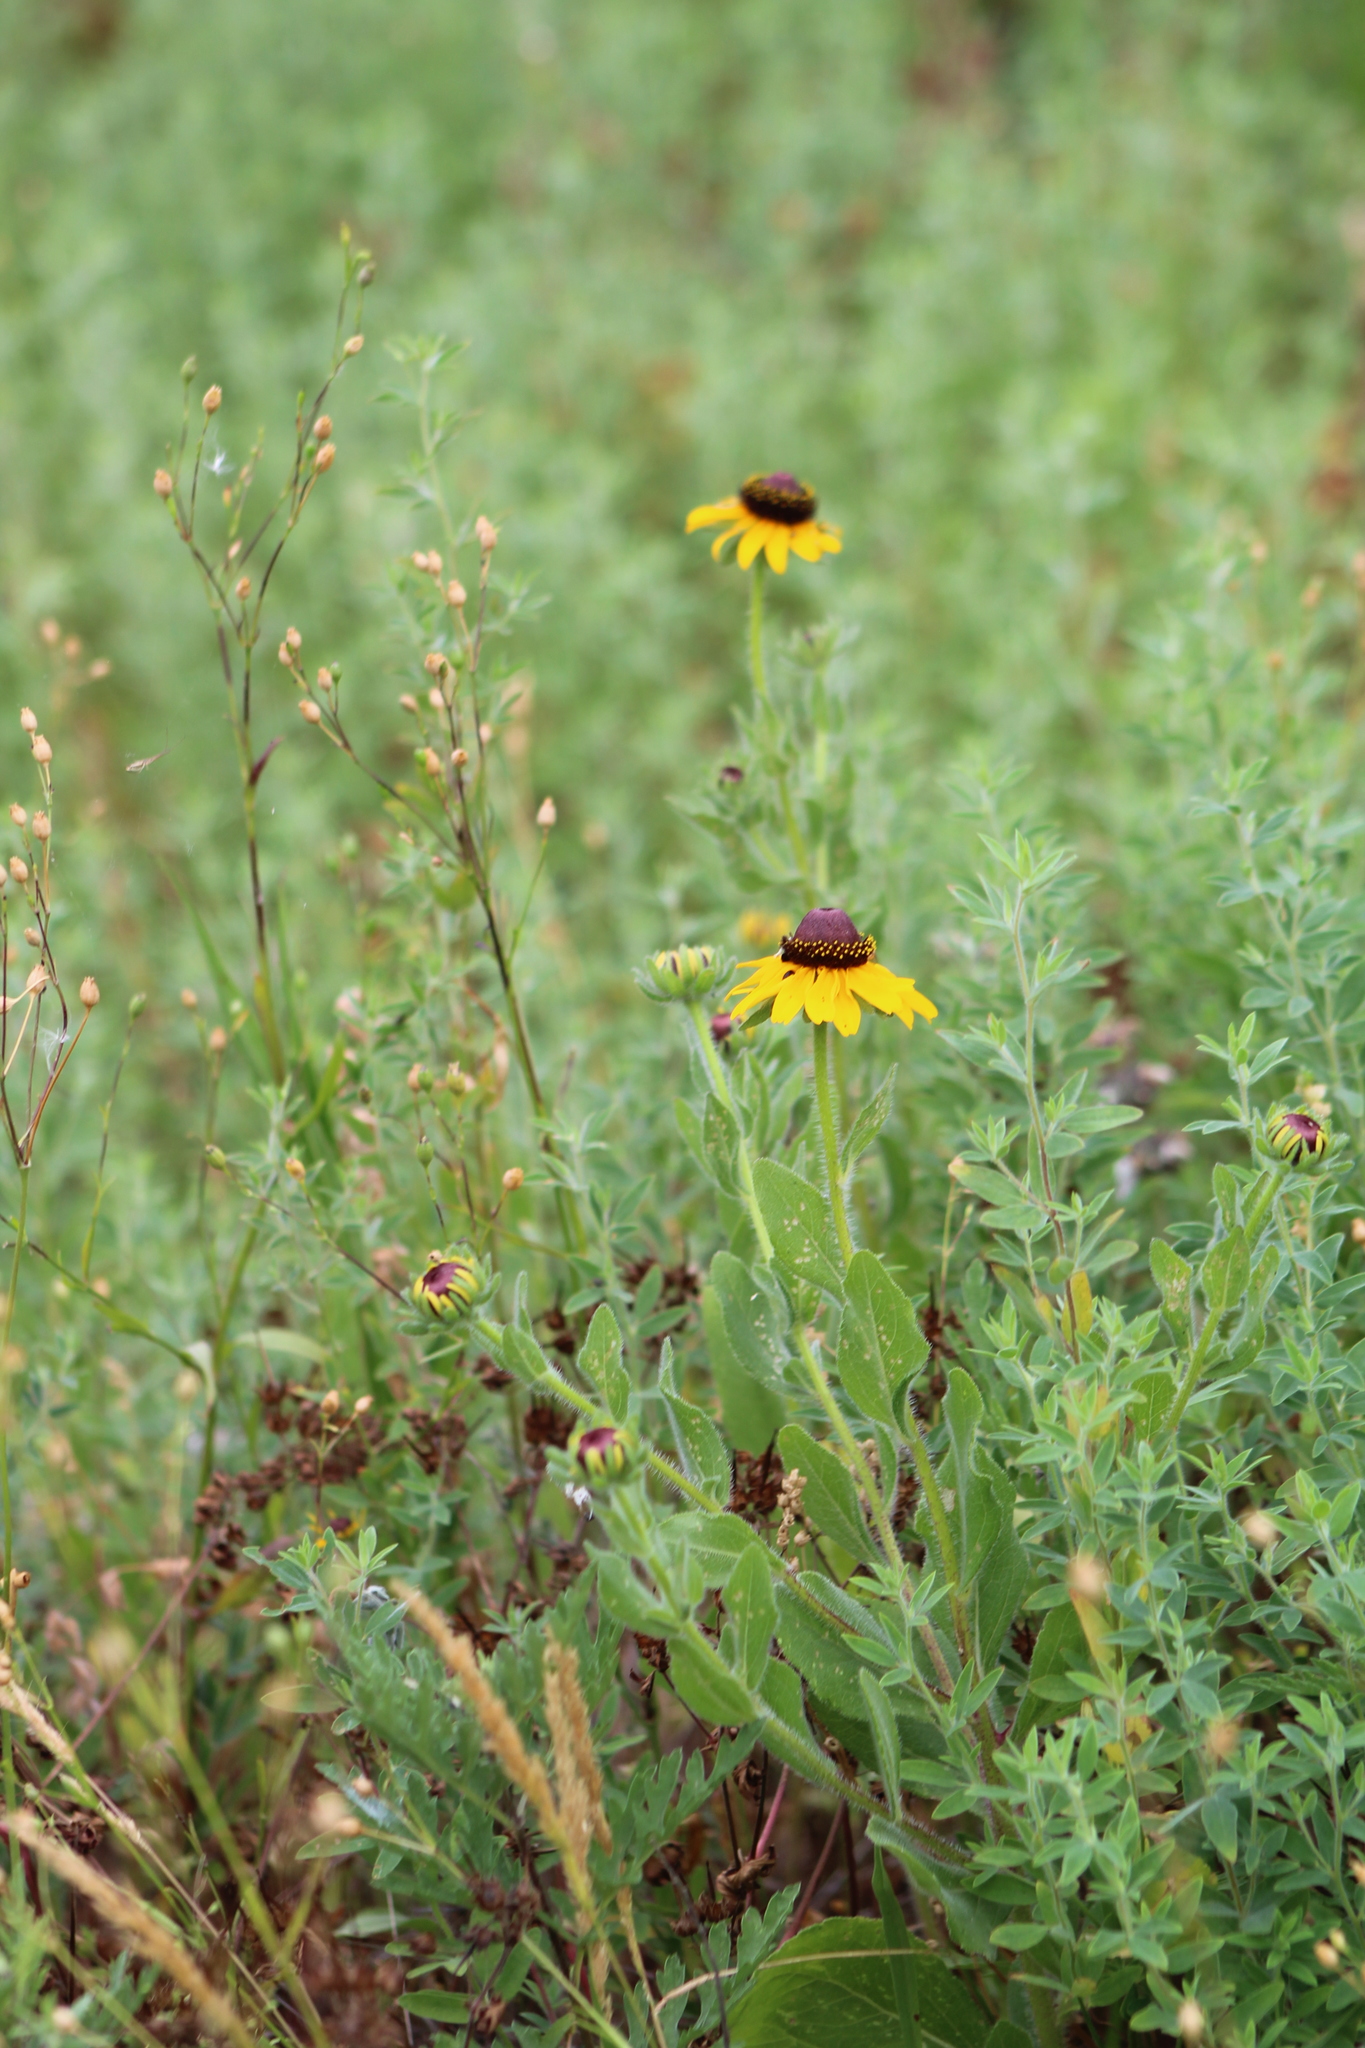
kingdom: Plantae
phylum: Tracheophyta
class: Magnoliopsida
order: Asterales
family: Asteraceae
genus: Rudbeckia
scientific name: Rudbeckia hirta
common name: Black-eyed-susan
